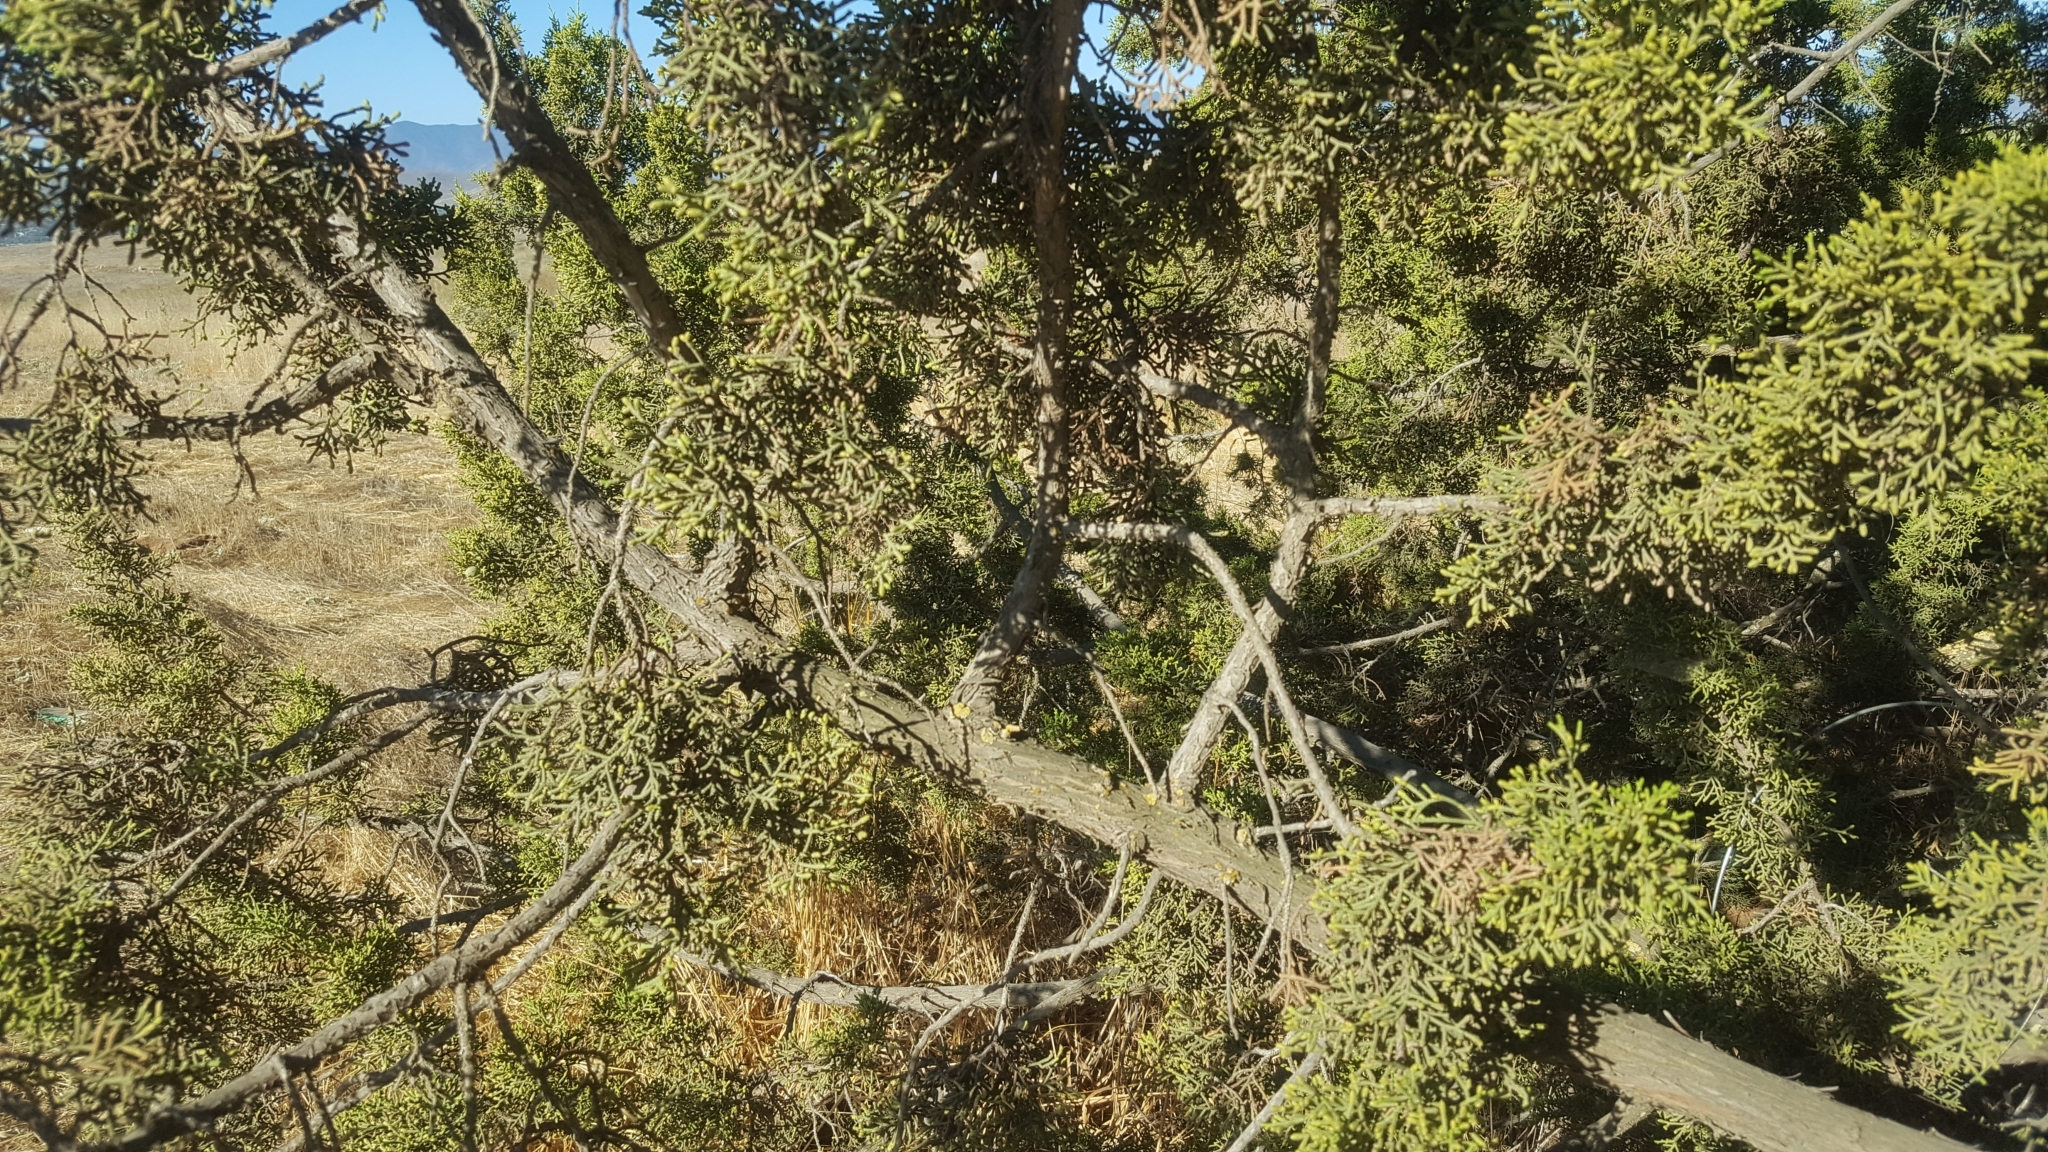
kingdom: Plantae
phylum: Tracheophyta
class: Pinopsida
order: Pinales
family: Cupressaceae
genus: Juniperus
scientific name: Juniperus californica
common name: California juniper
